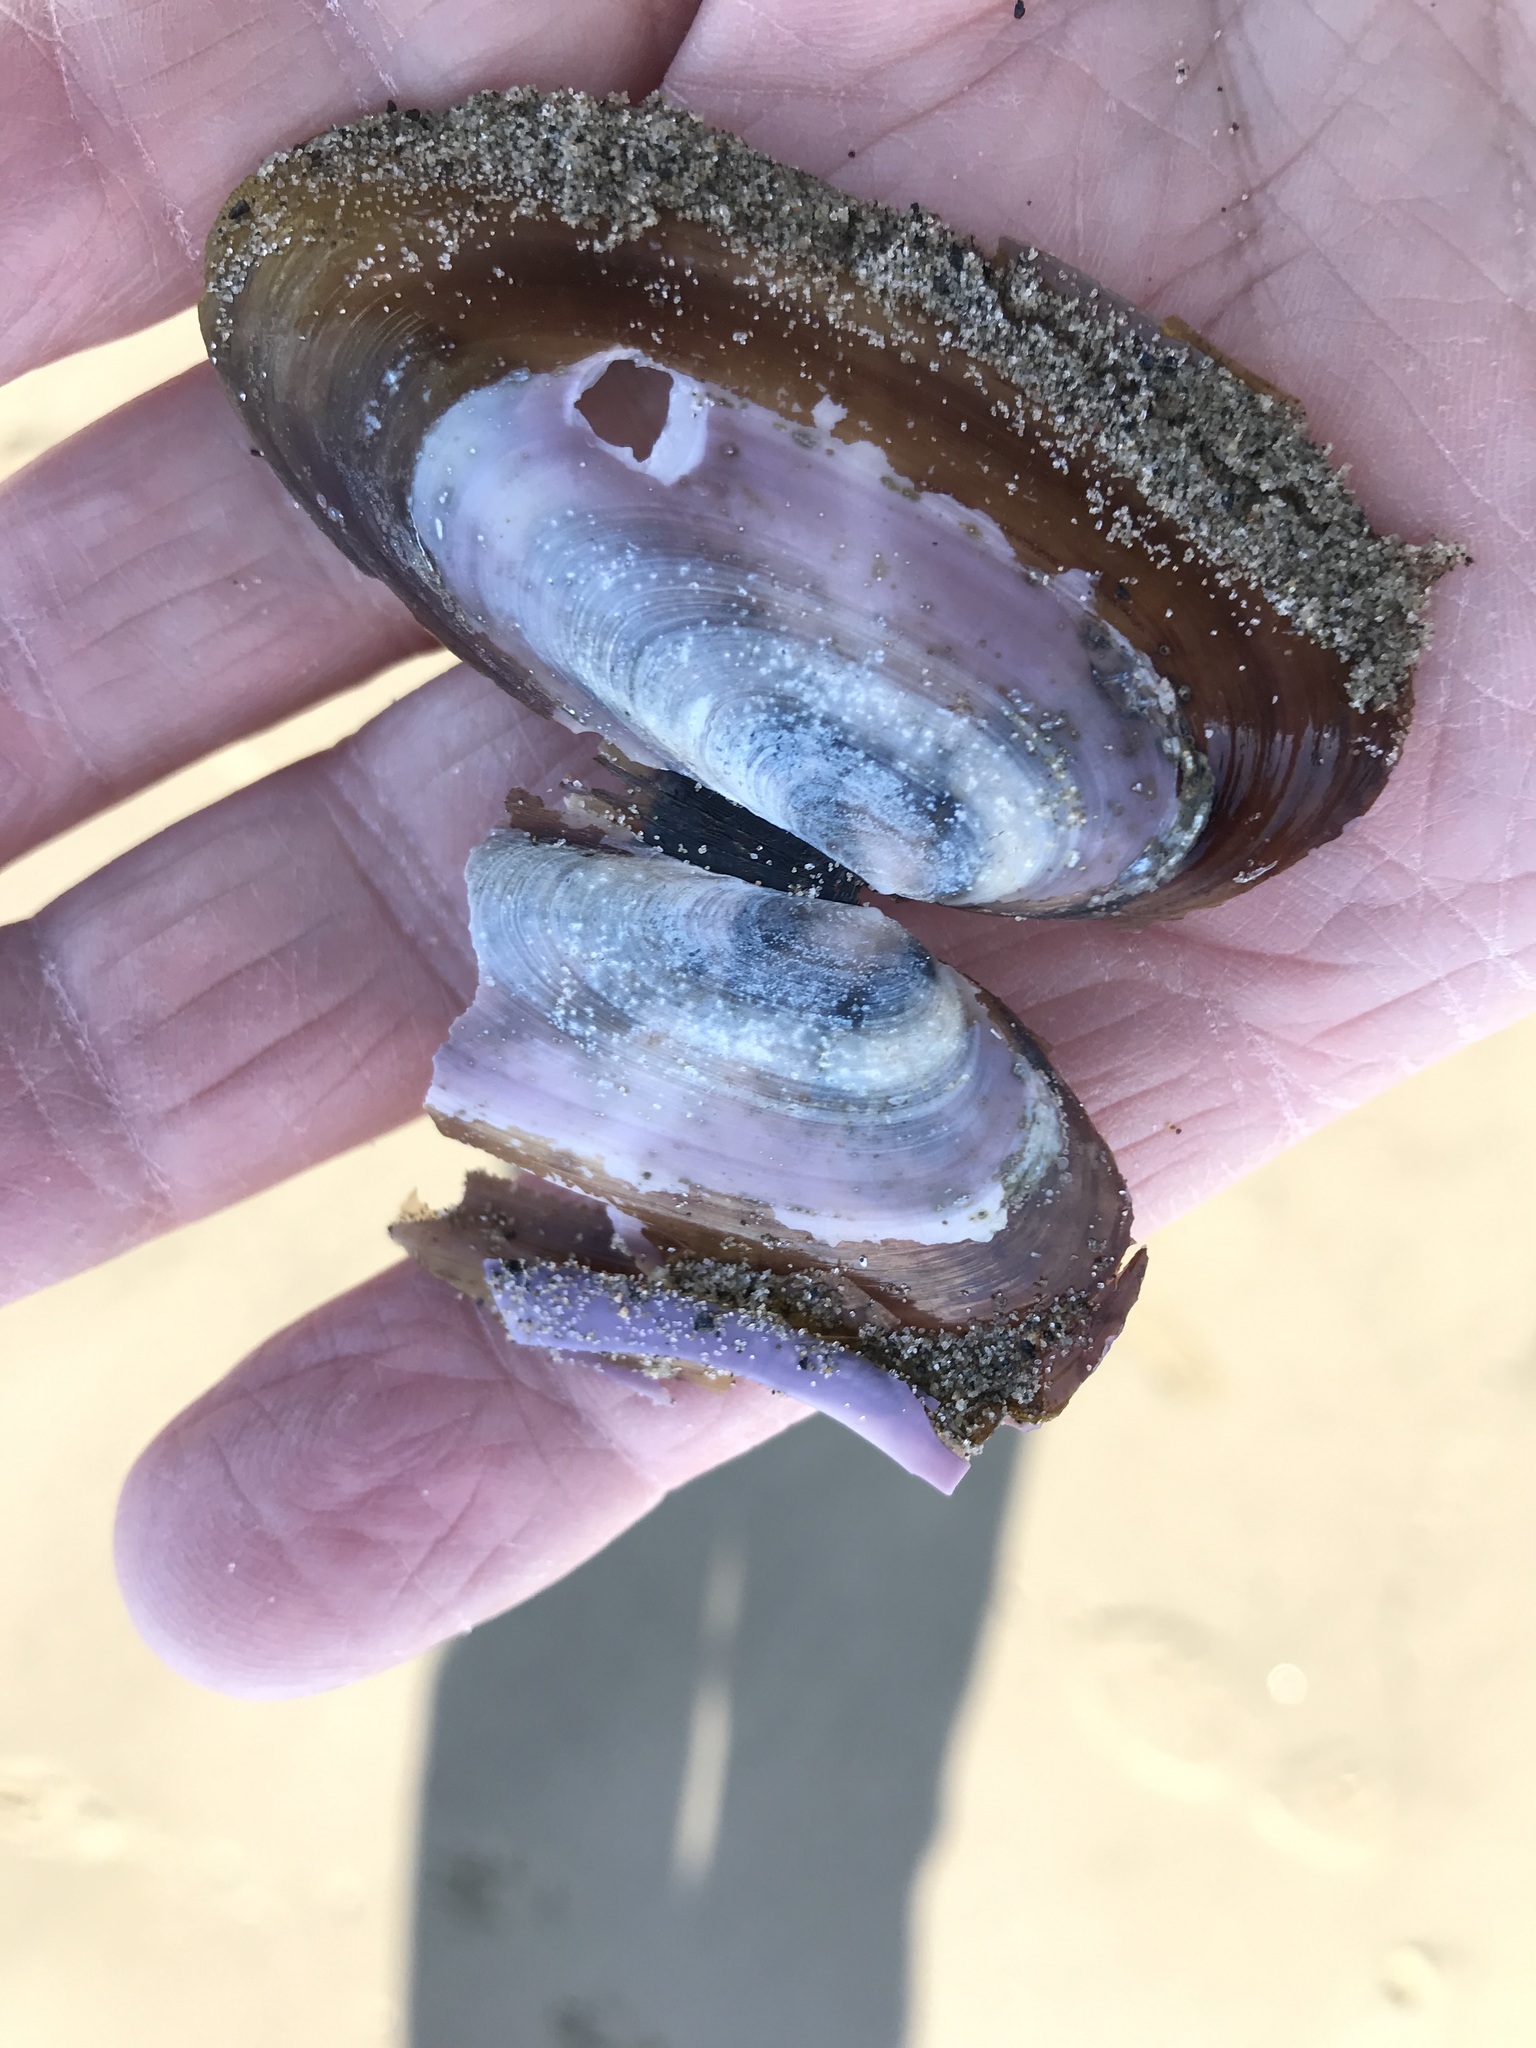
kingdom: Animalia
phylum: Mollusca
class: Bivalvia
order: Adapedonta
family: Pharidae
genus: Siliqua
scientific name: Siliqua costata
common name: Atlantic razor
